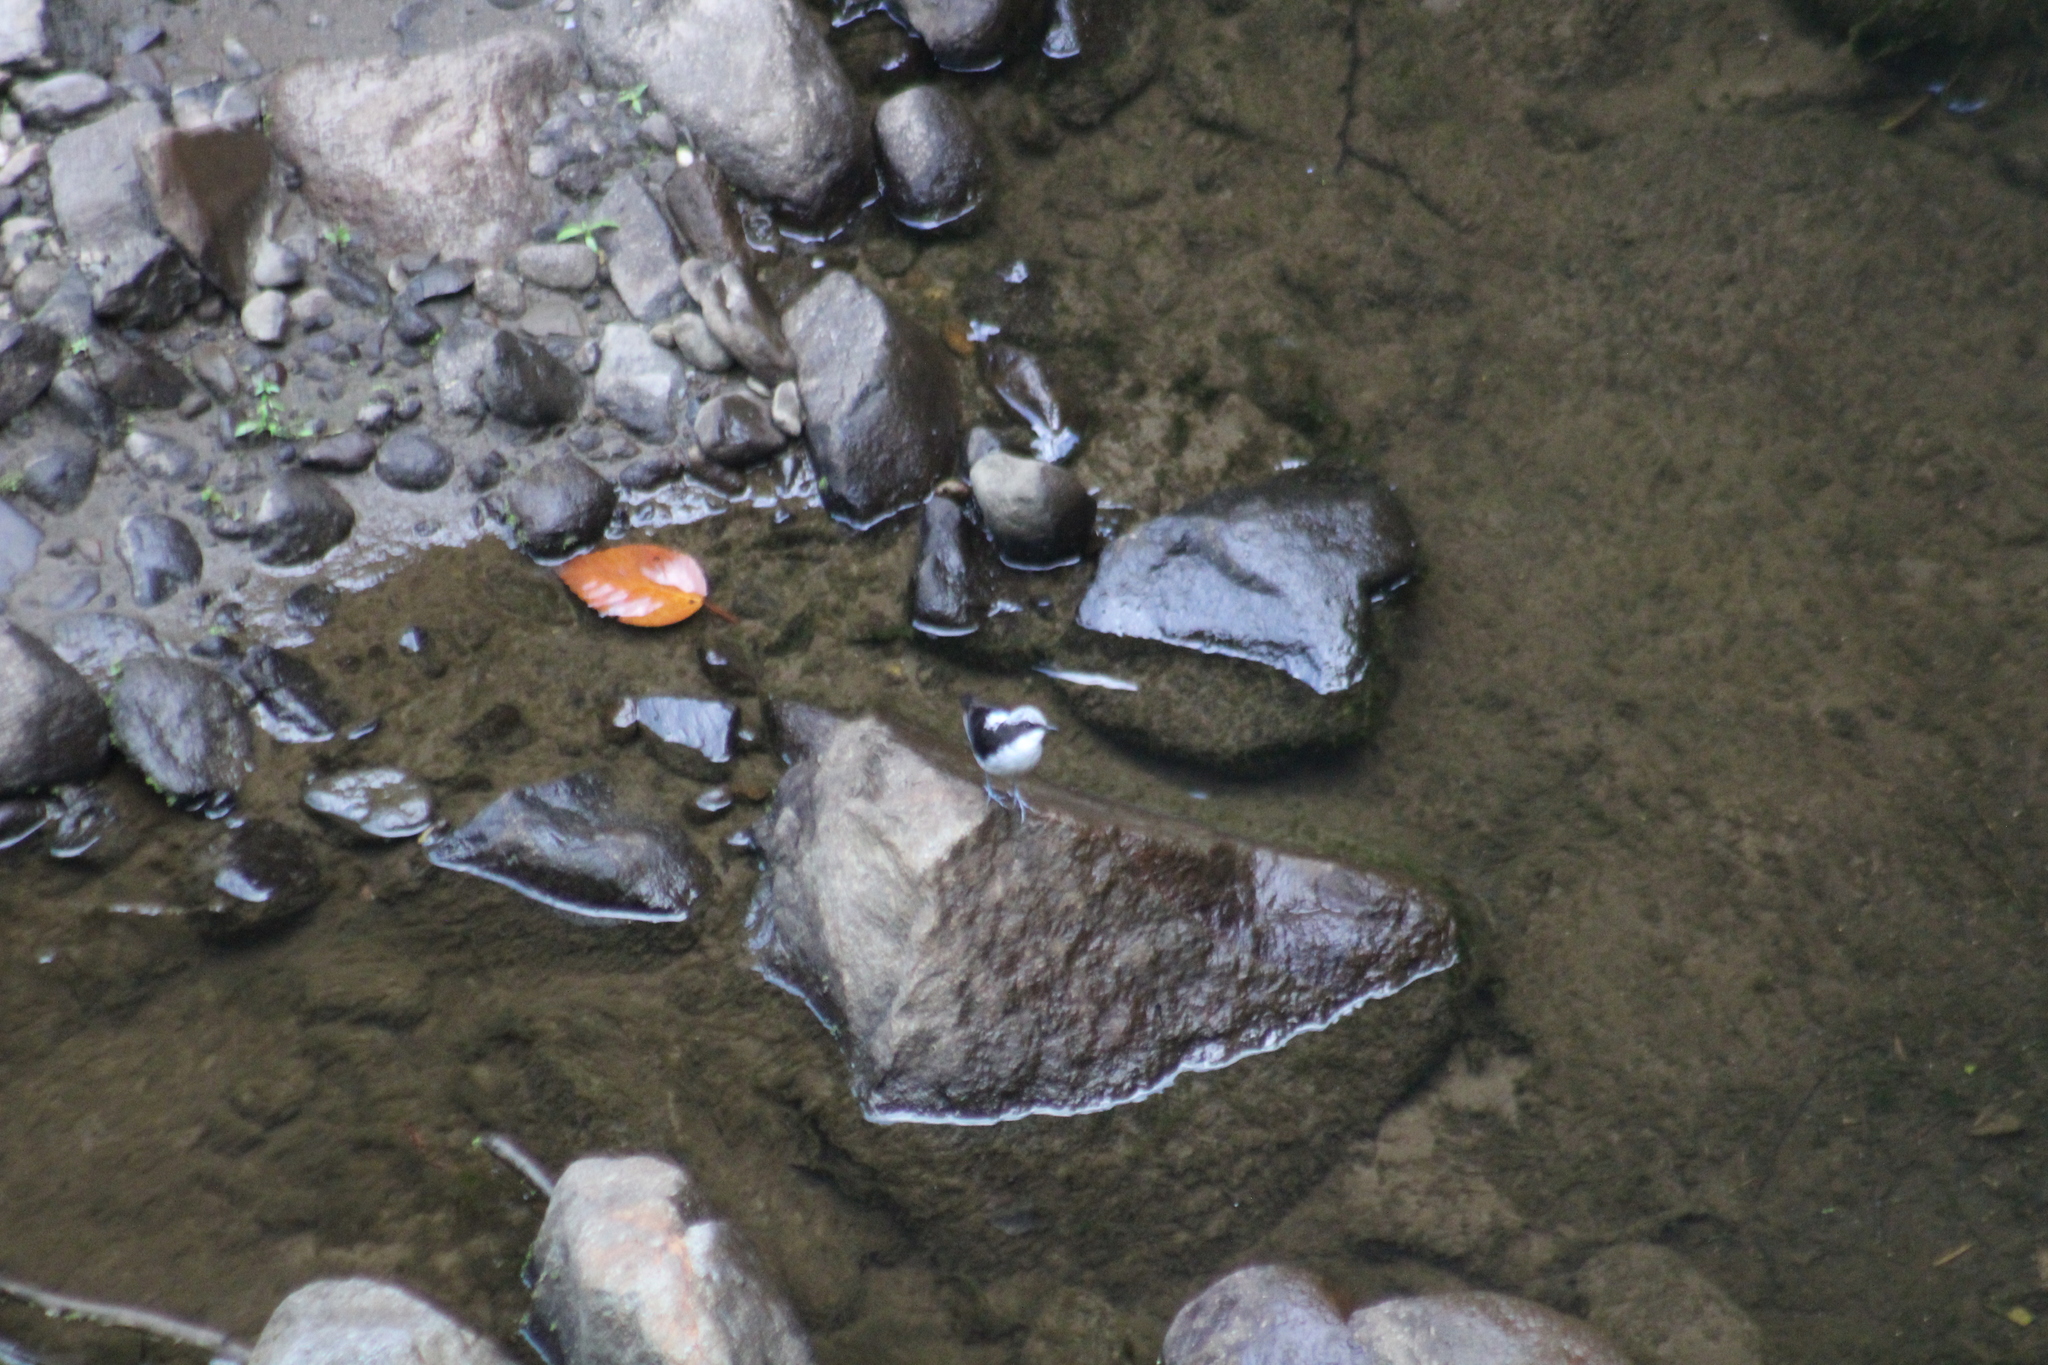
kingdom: Animalia
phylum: Chordata
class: Aves
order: Passeriformes
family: Cinclidae
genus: Cinclus
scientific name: Cinclus leucocephalus
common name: White-capped dipper
